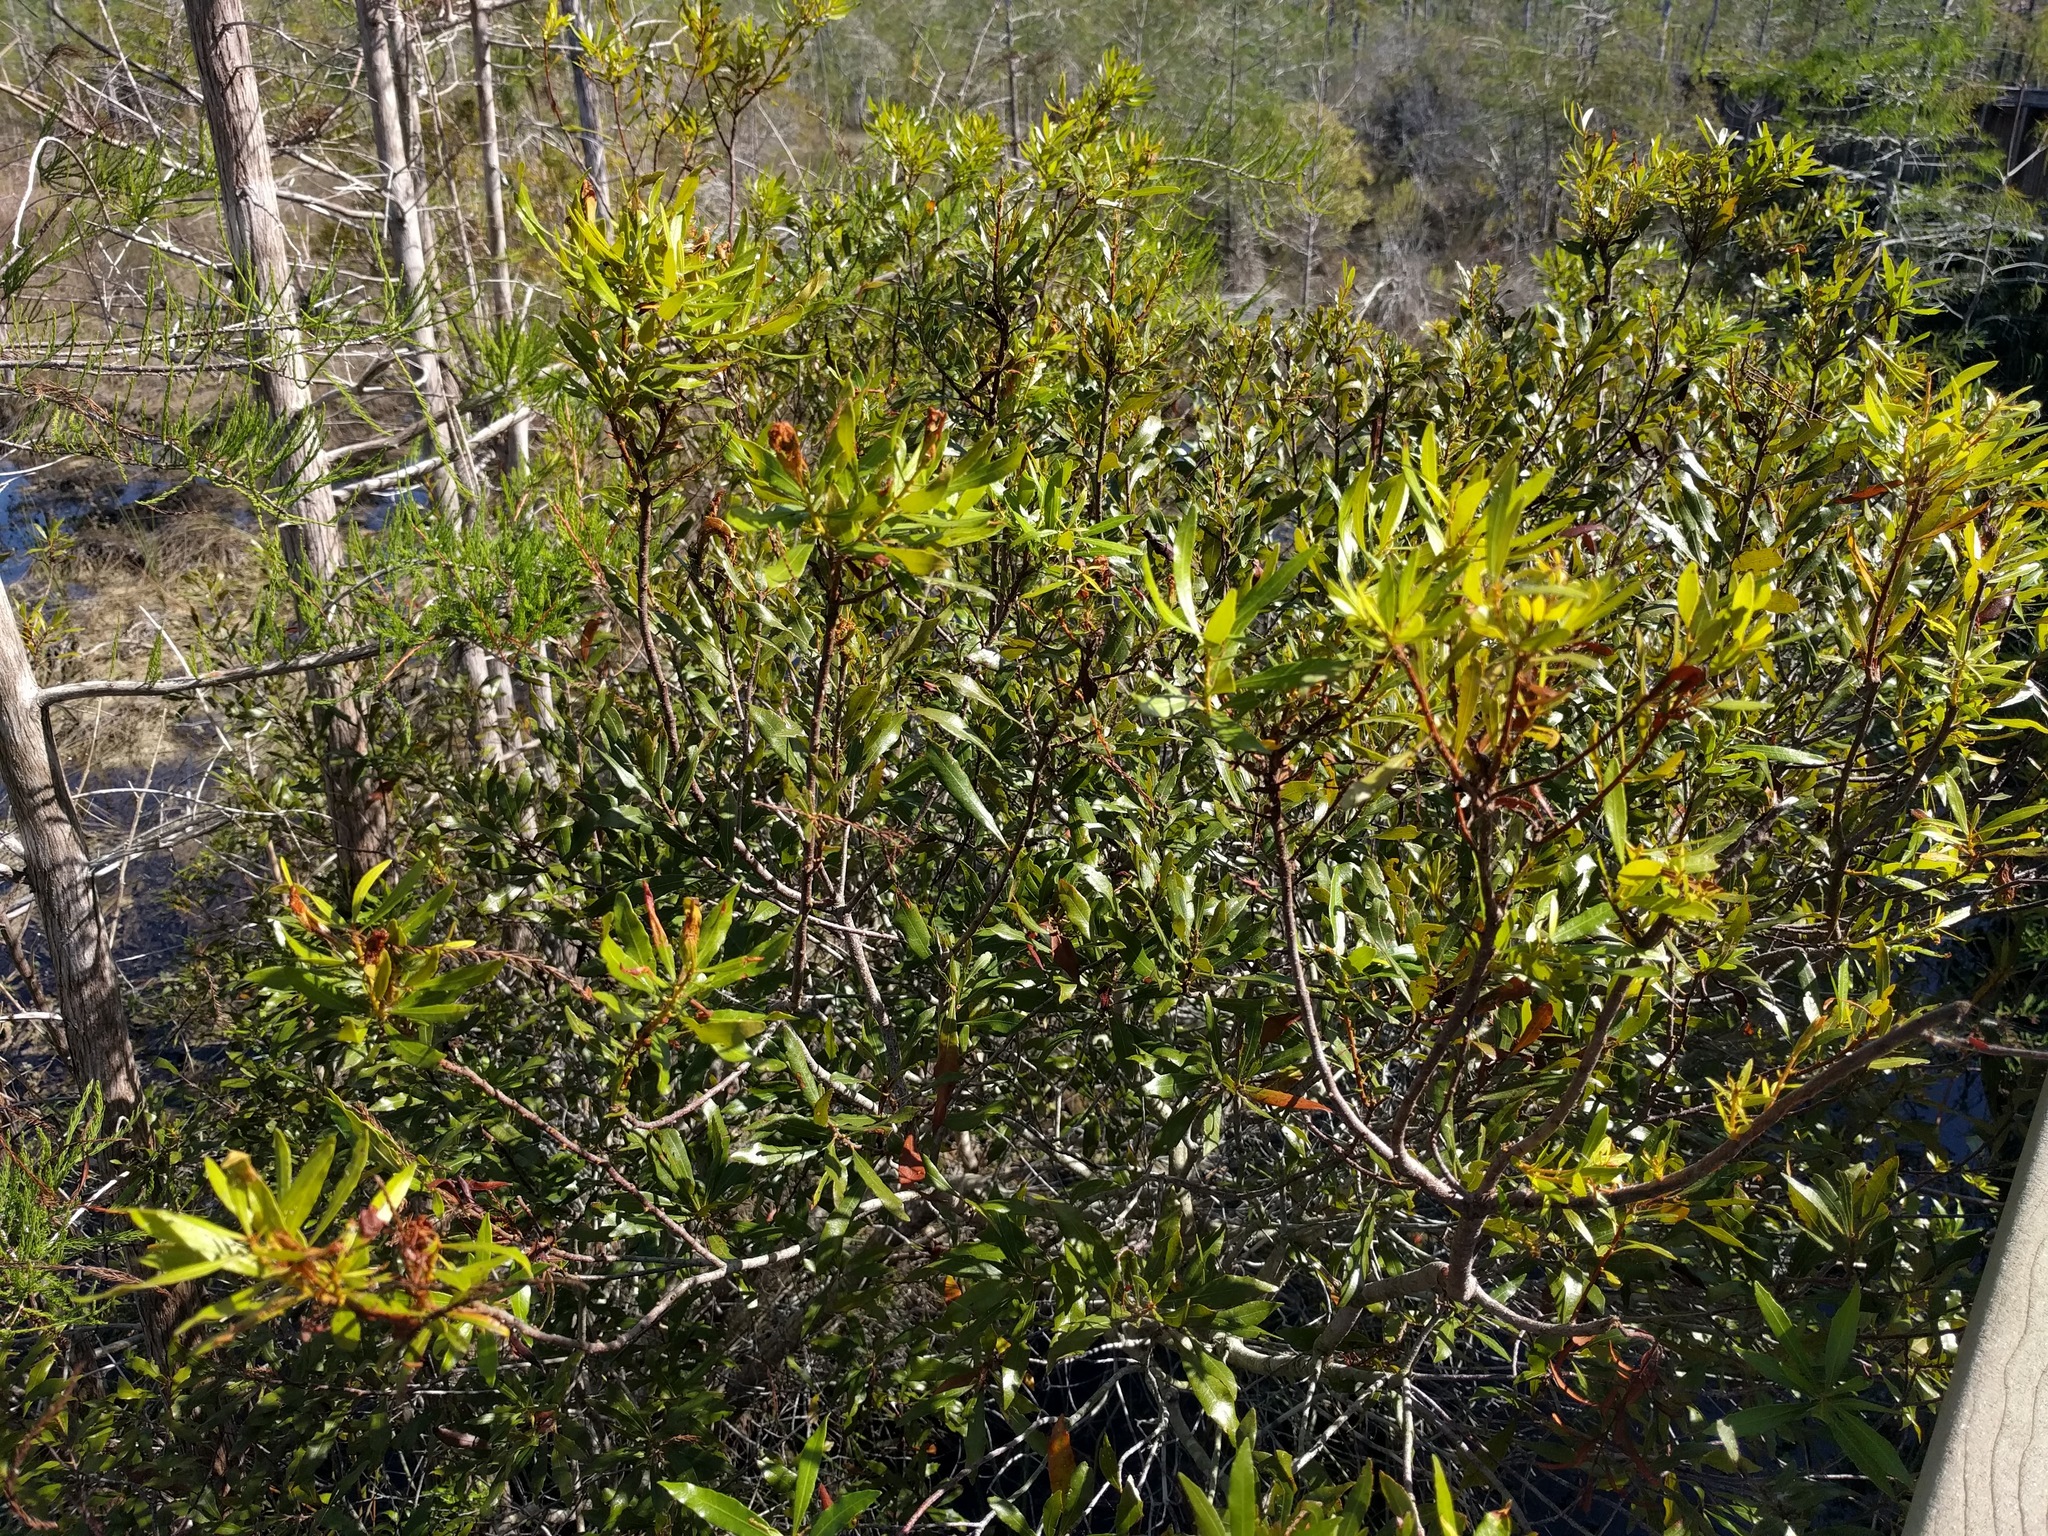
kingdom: Plantae
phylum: Tracheophyta
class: Magnoliopsida
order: Fagales
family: Myricaceae
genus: Morella
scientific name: Morella cerifera
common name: Wax myrtle
